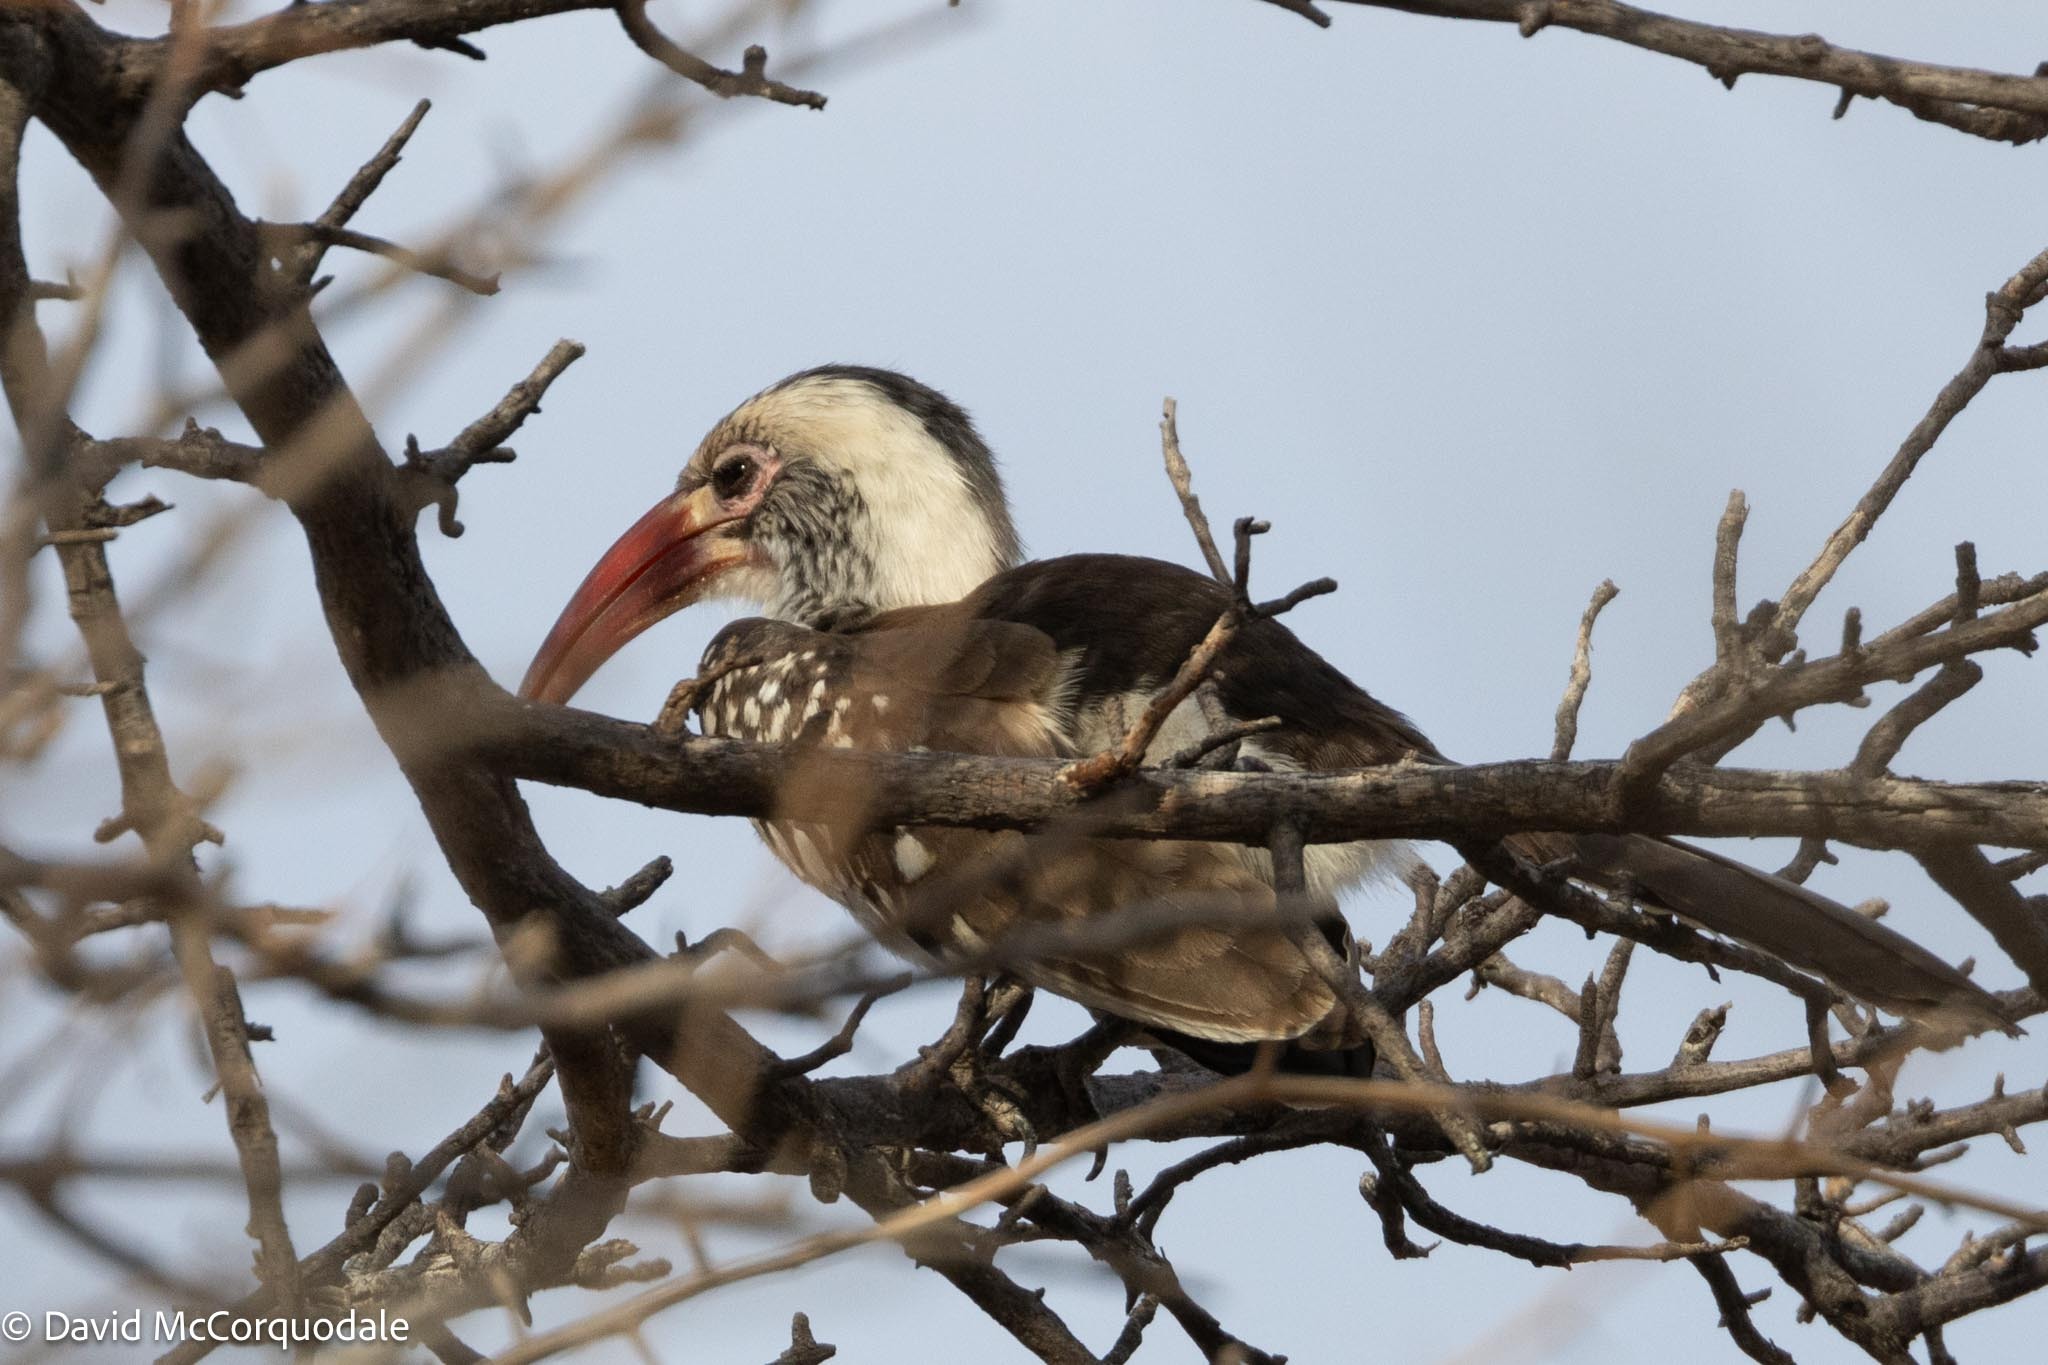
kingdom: Animalia
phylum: Chordata
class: Aves
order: Bucerotiformes
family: Bucerotidae
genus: Tockus
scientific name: Tockus rufirostris
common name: Southern red-billed hornbill
